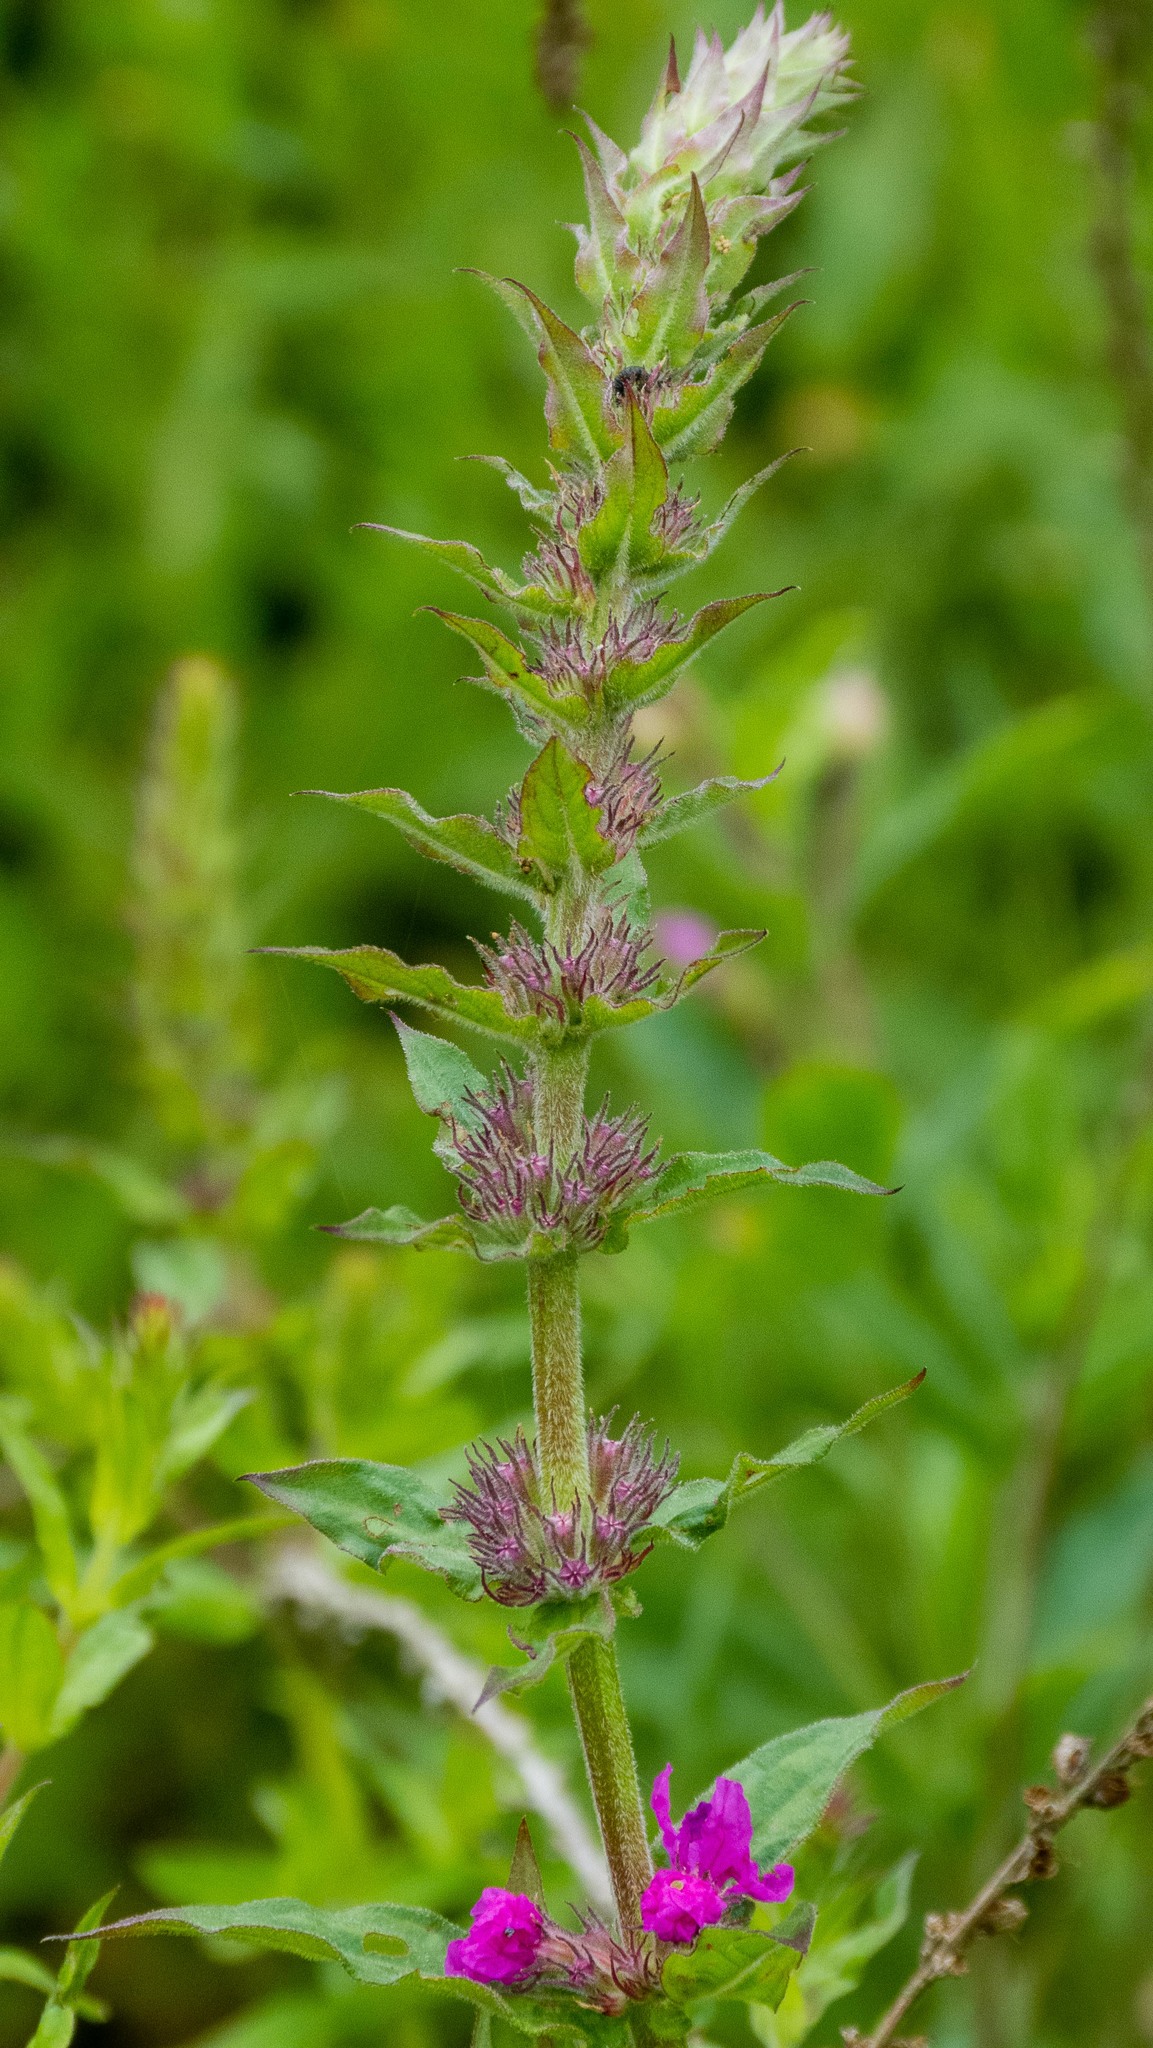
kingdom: Plantae
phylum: Tracheophyta
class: Magnoliopsida
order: Myrtales
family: Lythraceae
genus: Lythrum
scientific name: Lythrum salicaria
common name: Purple loosestrife
